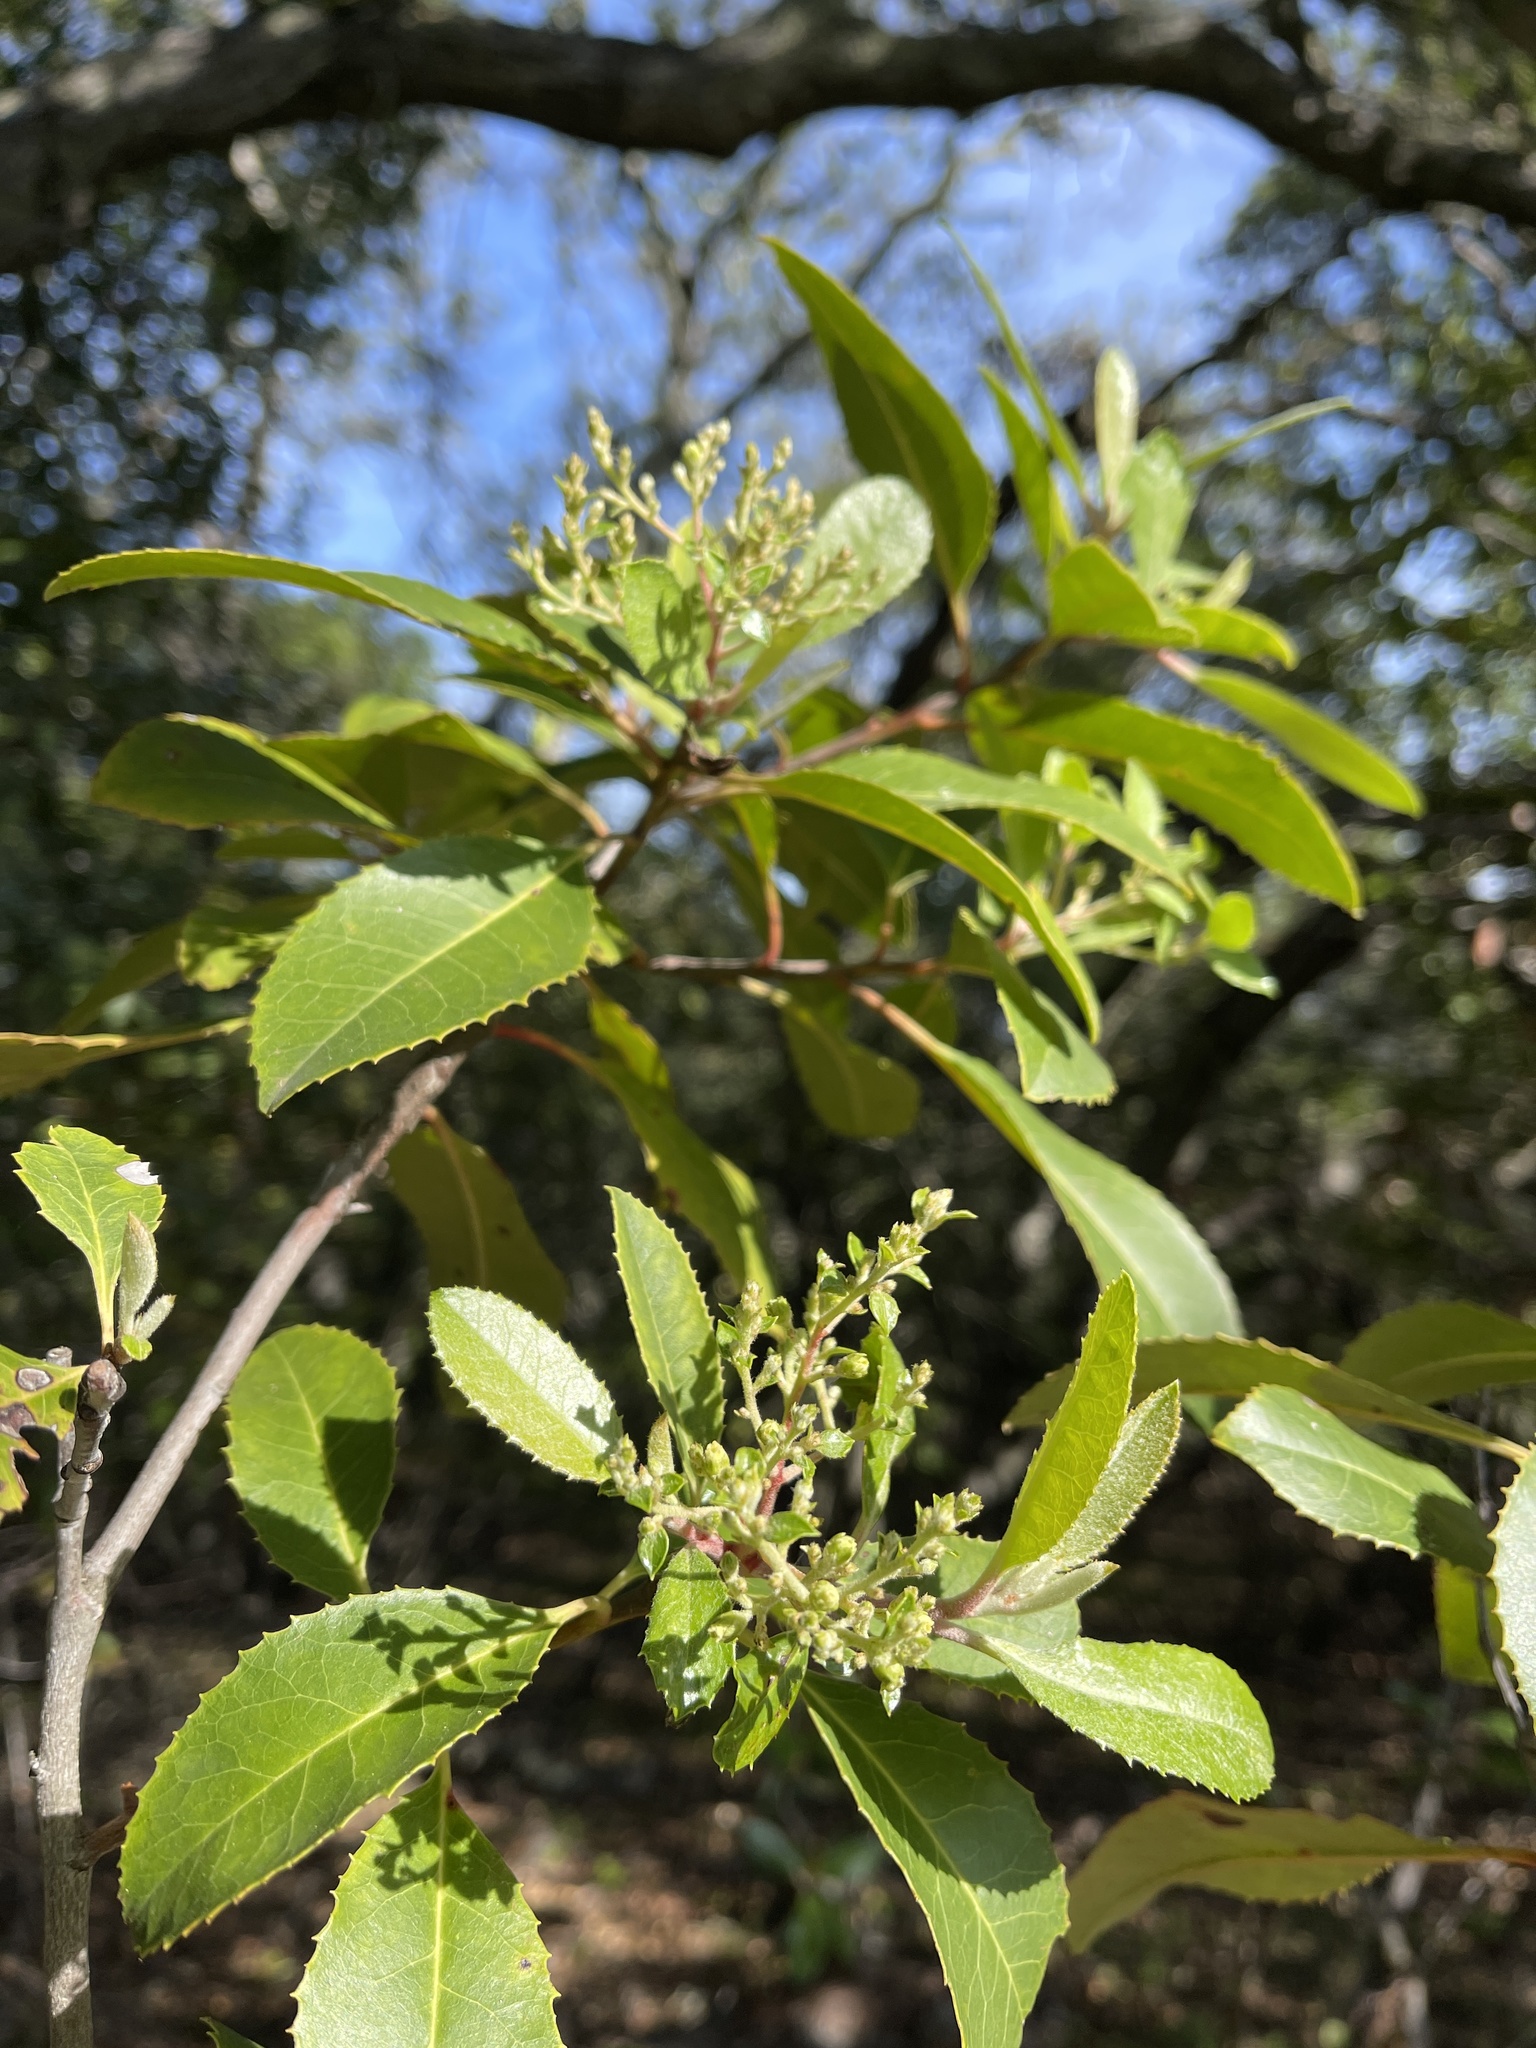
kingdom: Plantae
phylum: Tracheophyta
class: Magnoliopsida
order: Rosales
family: Rosaceae
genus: Heteromeles
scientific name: Heteromeles arbutifolia
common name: California-holly
